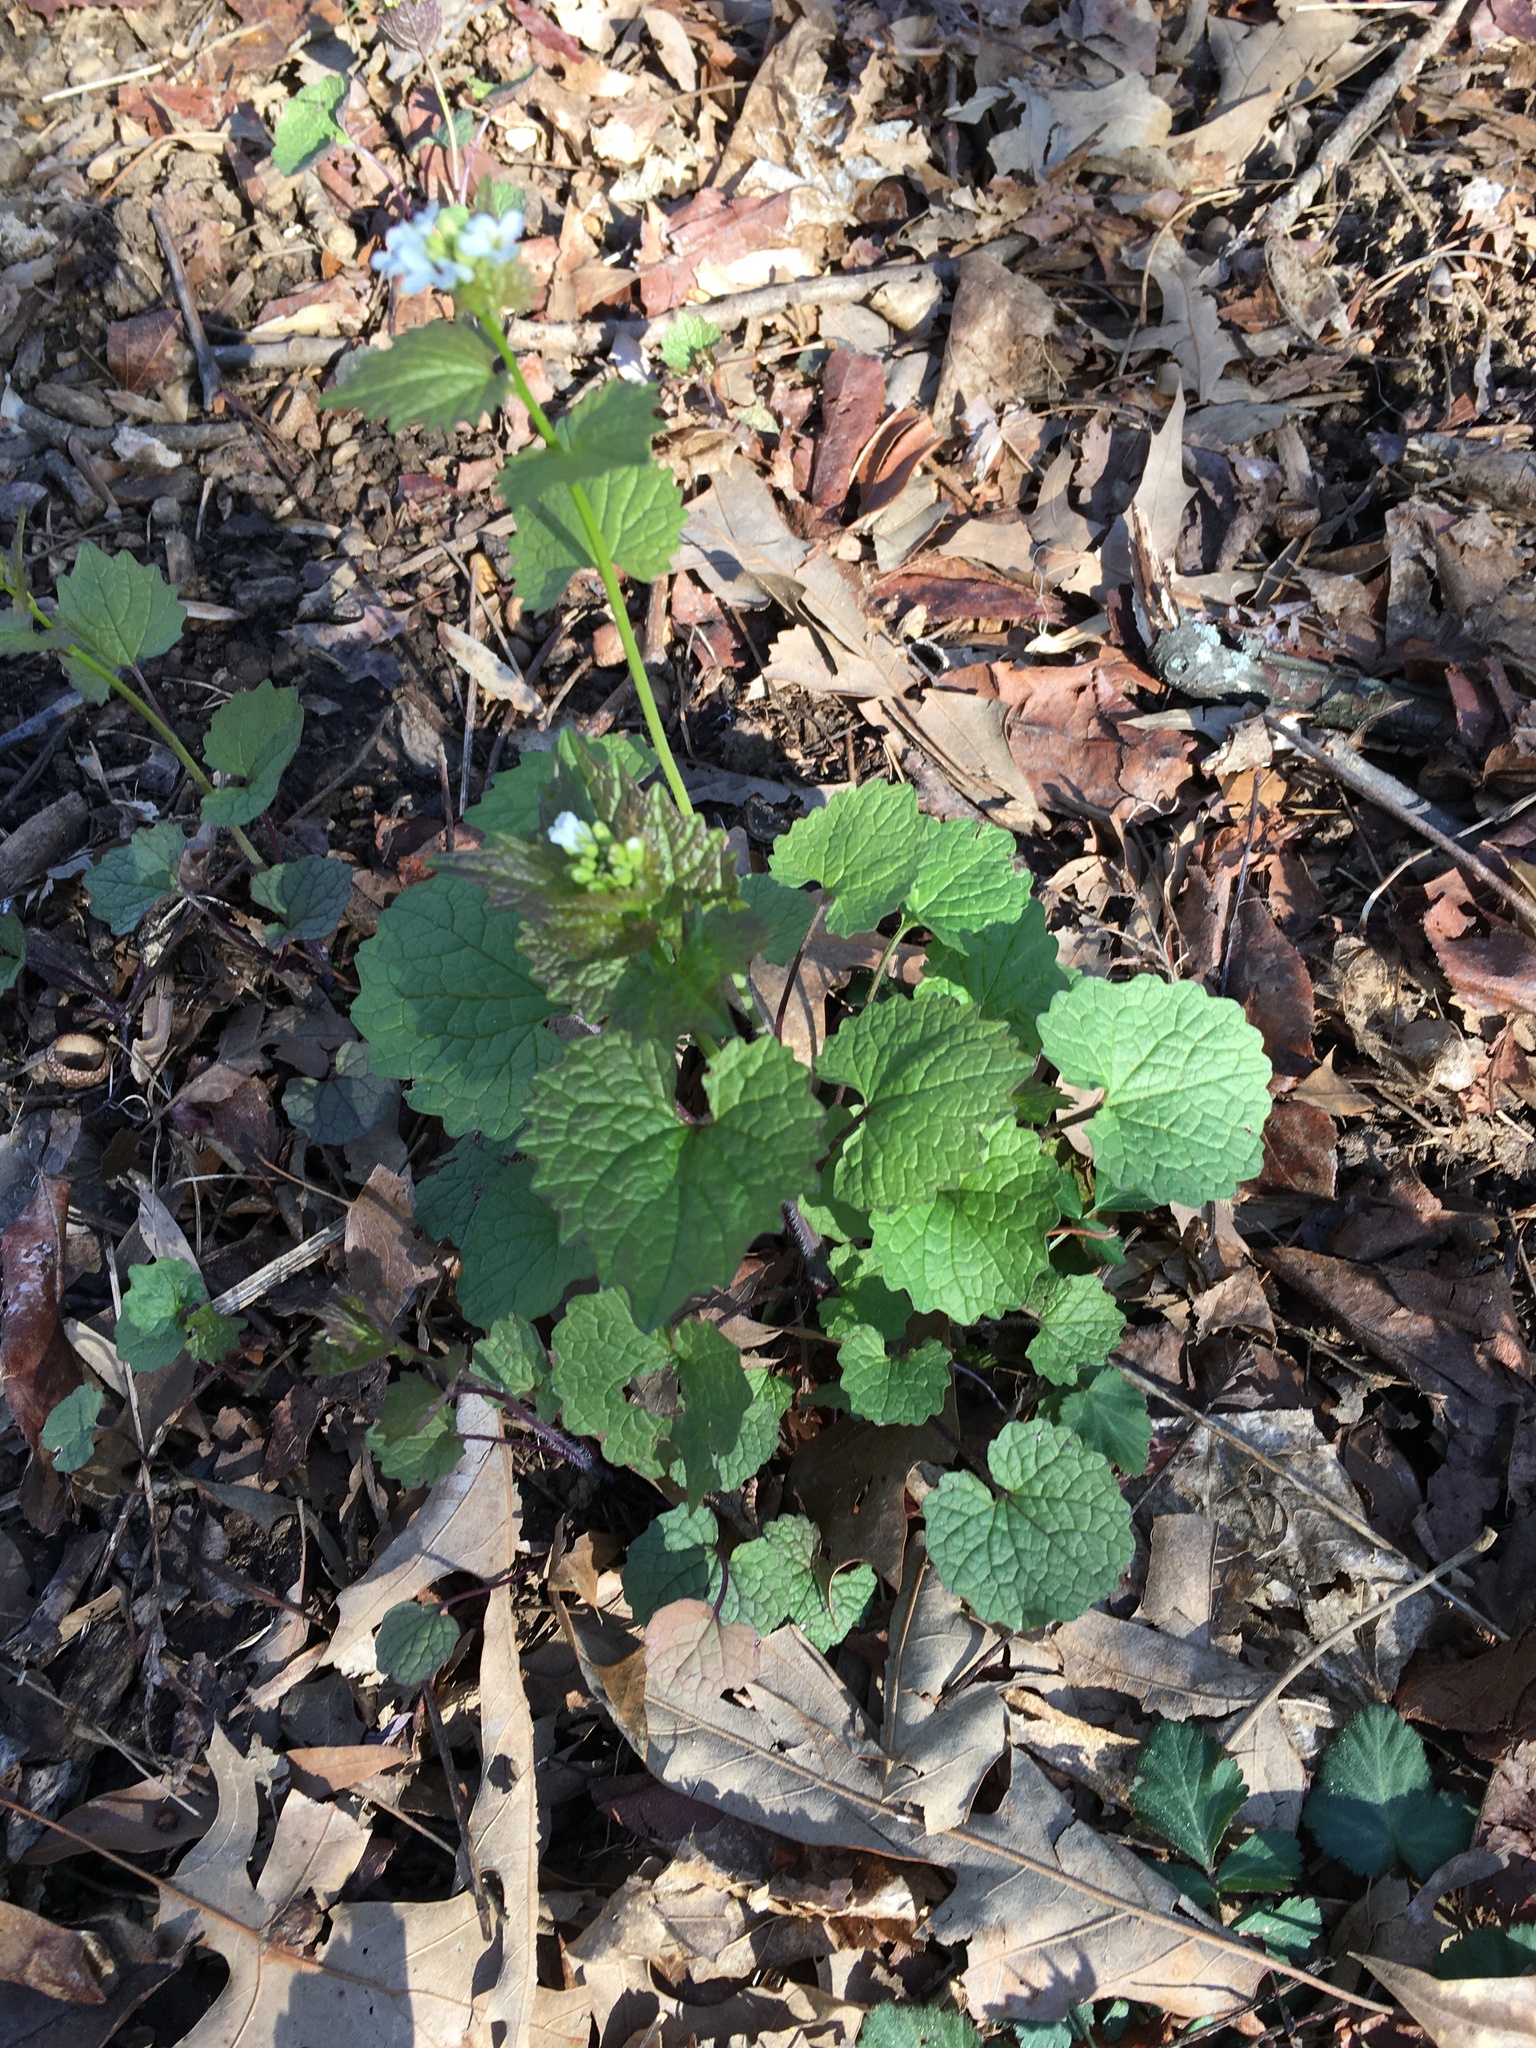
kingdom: Plantae
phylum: Tracheophyta
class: Magnoliopsida
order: Brassicales
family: Brassicaceae
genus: Alliaria
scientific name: Alliaria petiolata
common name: Garlic mustard
